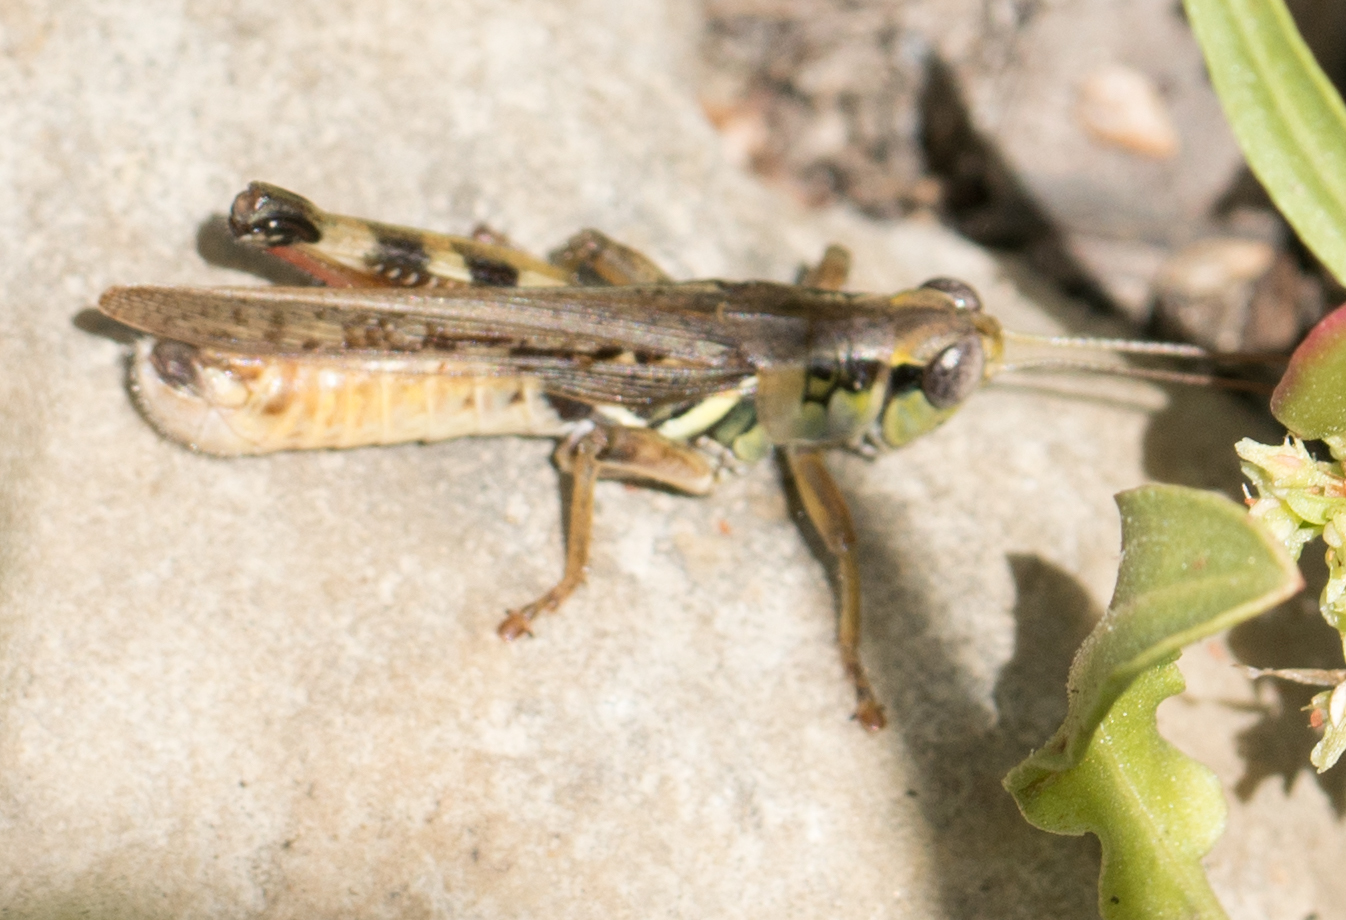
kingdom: Animalia
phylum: Arthropoda
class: Insecta
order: Orthoptera
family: Acrididae
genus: Melanoplus
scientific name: Melanoplus sanguinipes
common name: Migratory grasshopper
